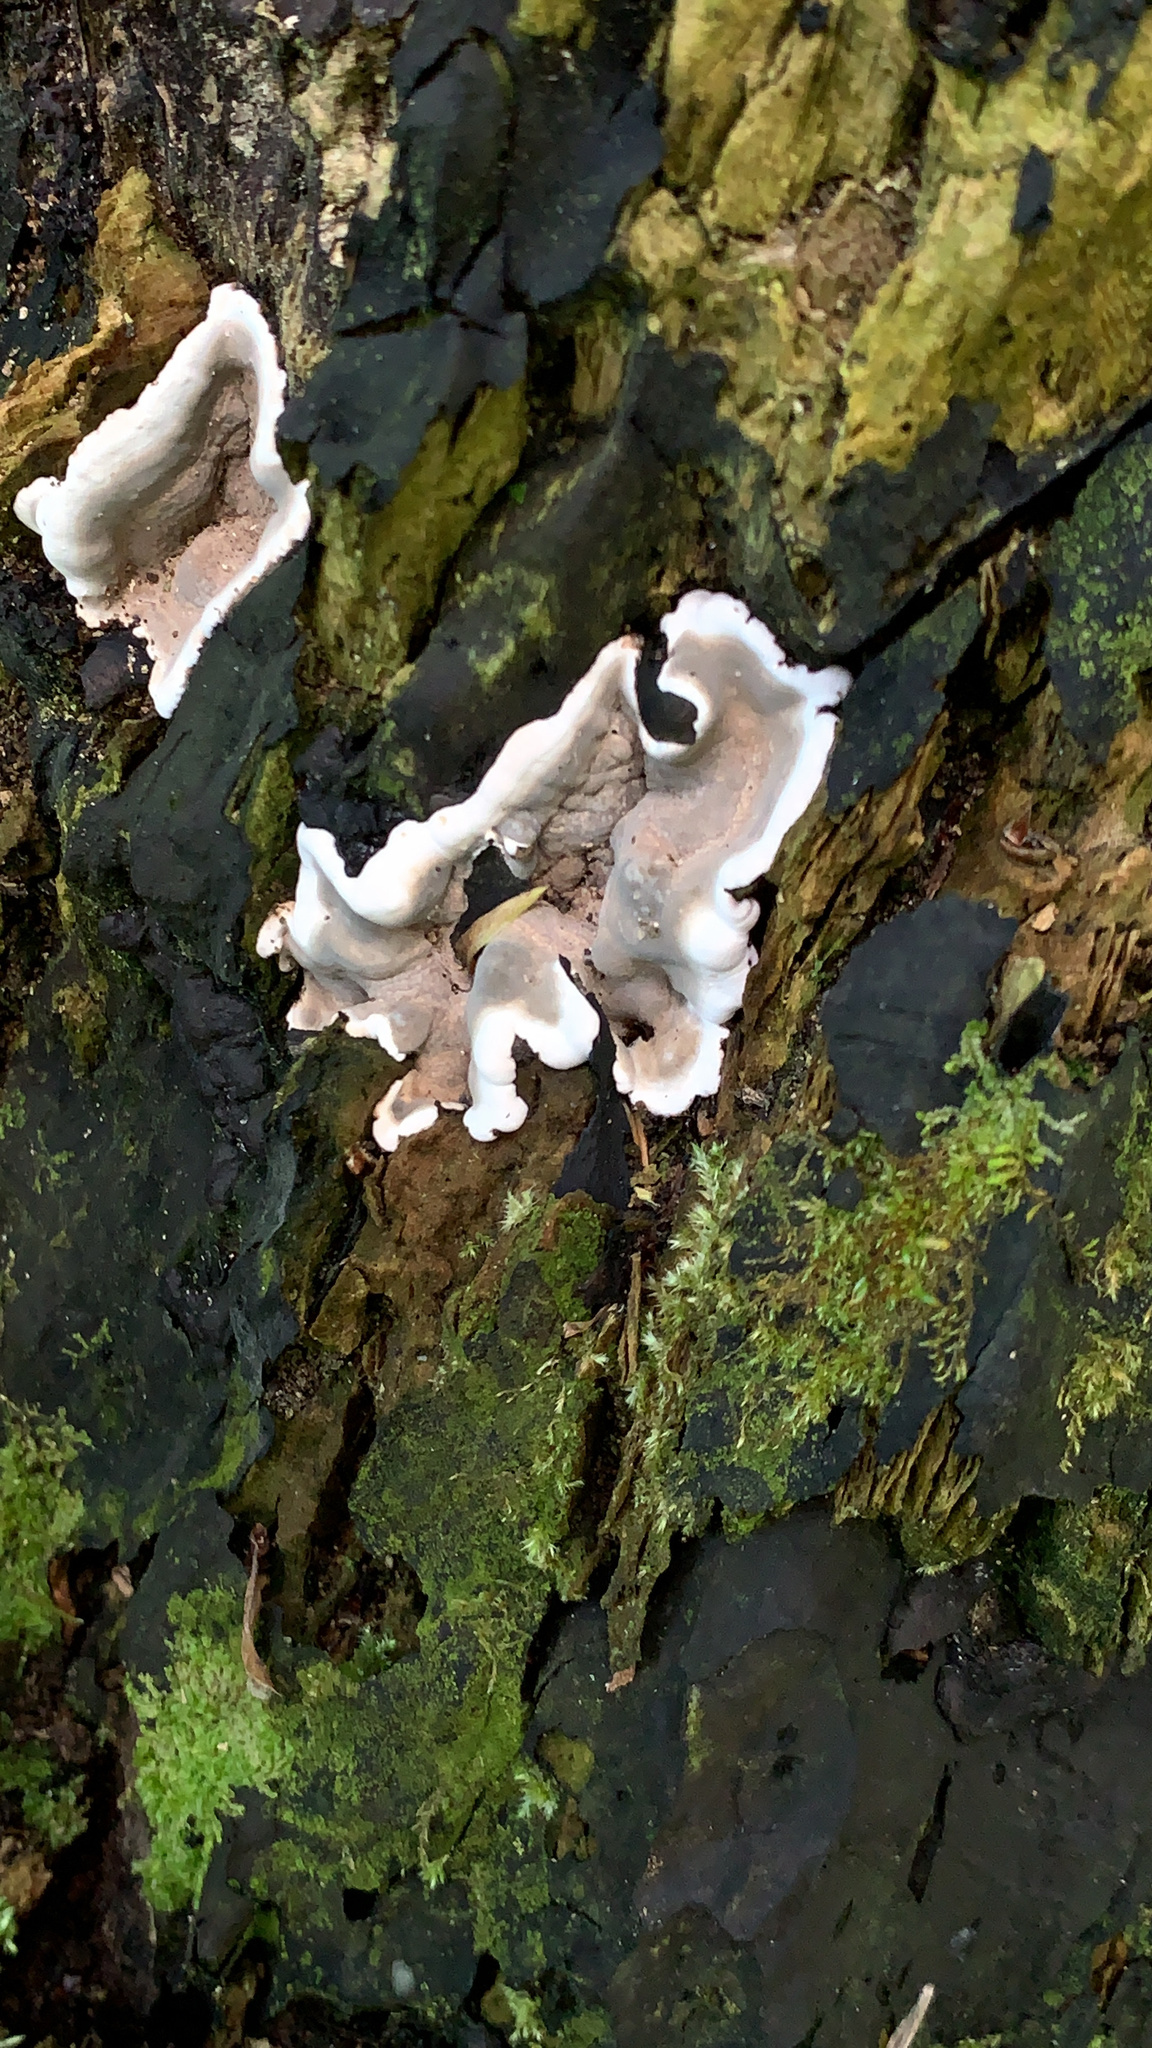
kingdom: Fungi
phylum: Ascomycota
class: Sordariomycetes
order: Xylariales
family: Xylariaceae
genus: Kretzschmaria
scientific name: Kretzschmaria deusta
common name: Brittle cinder
